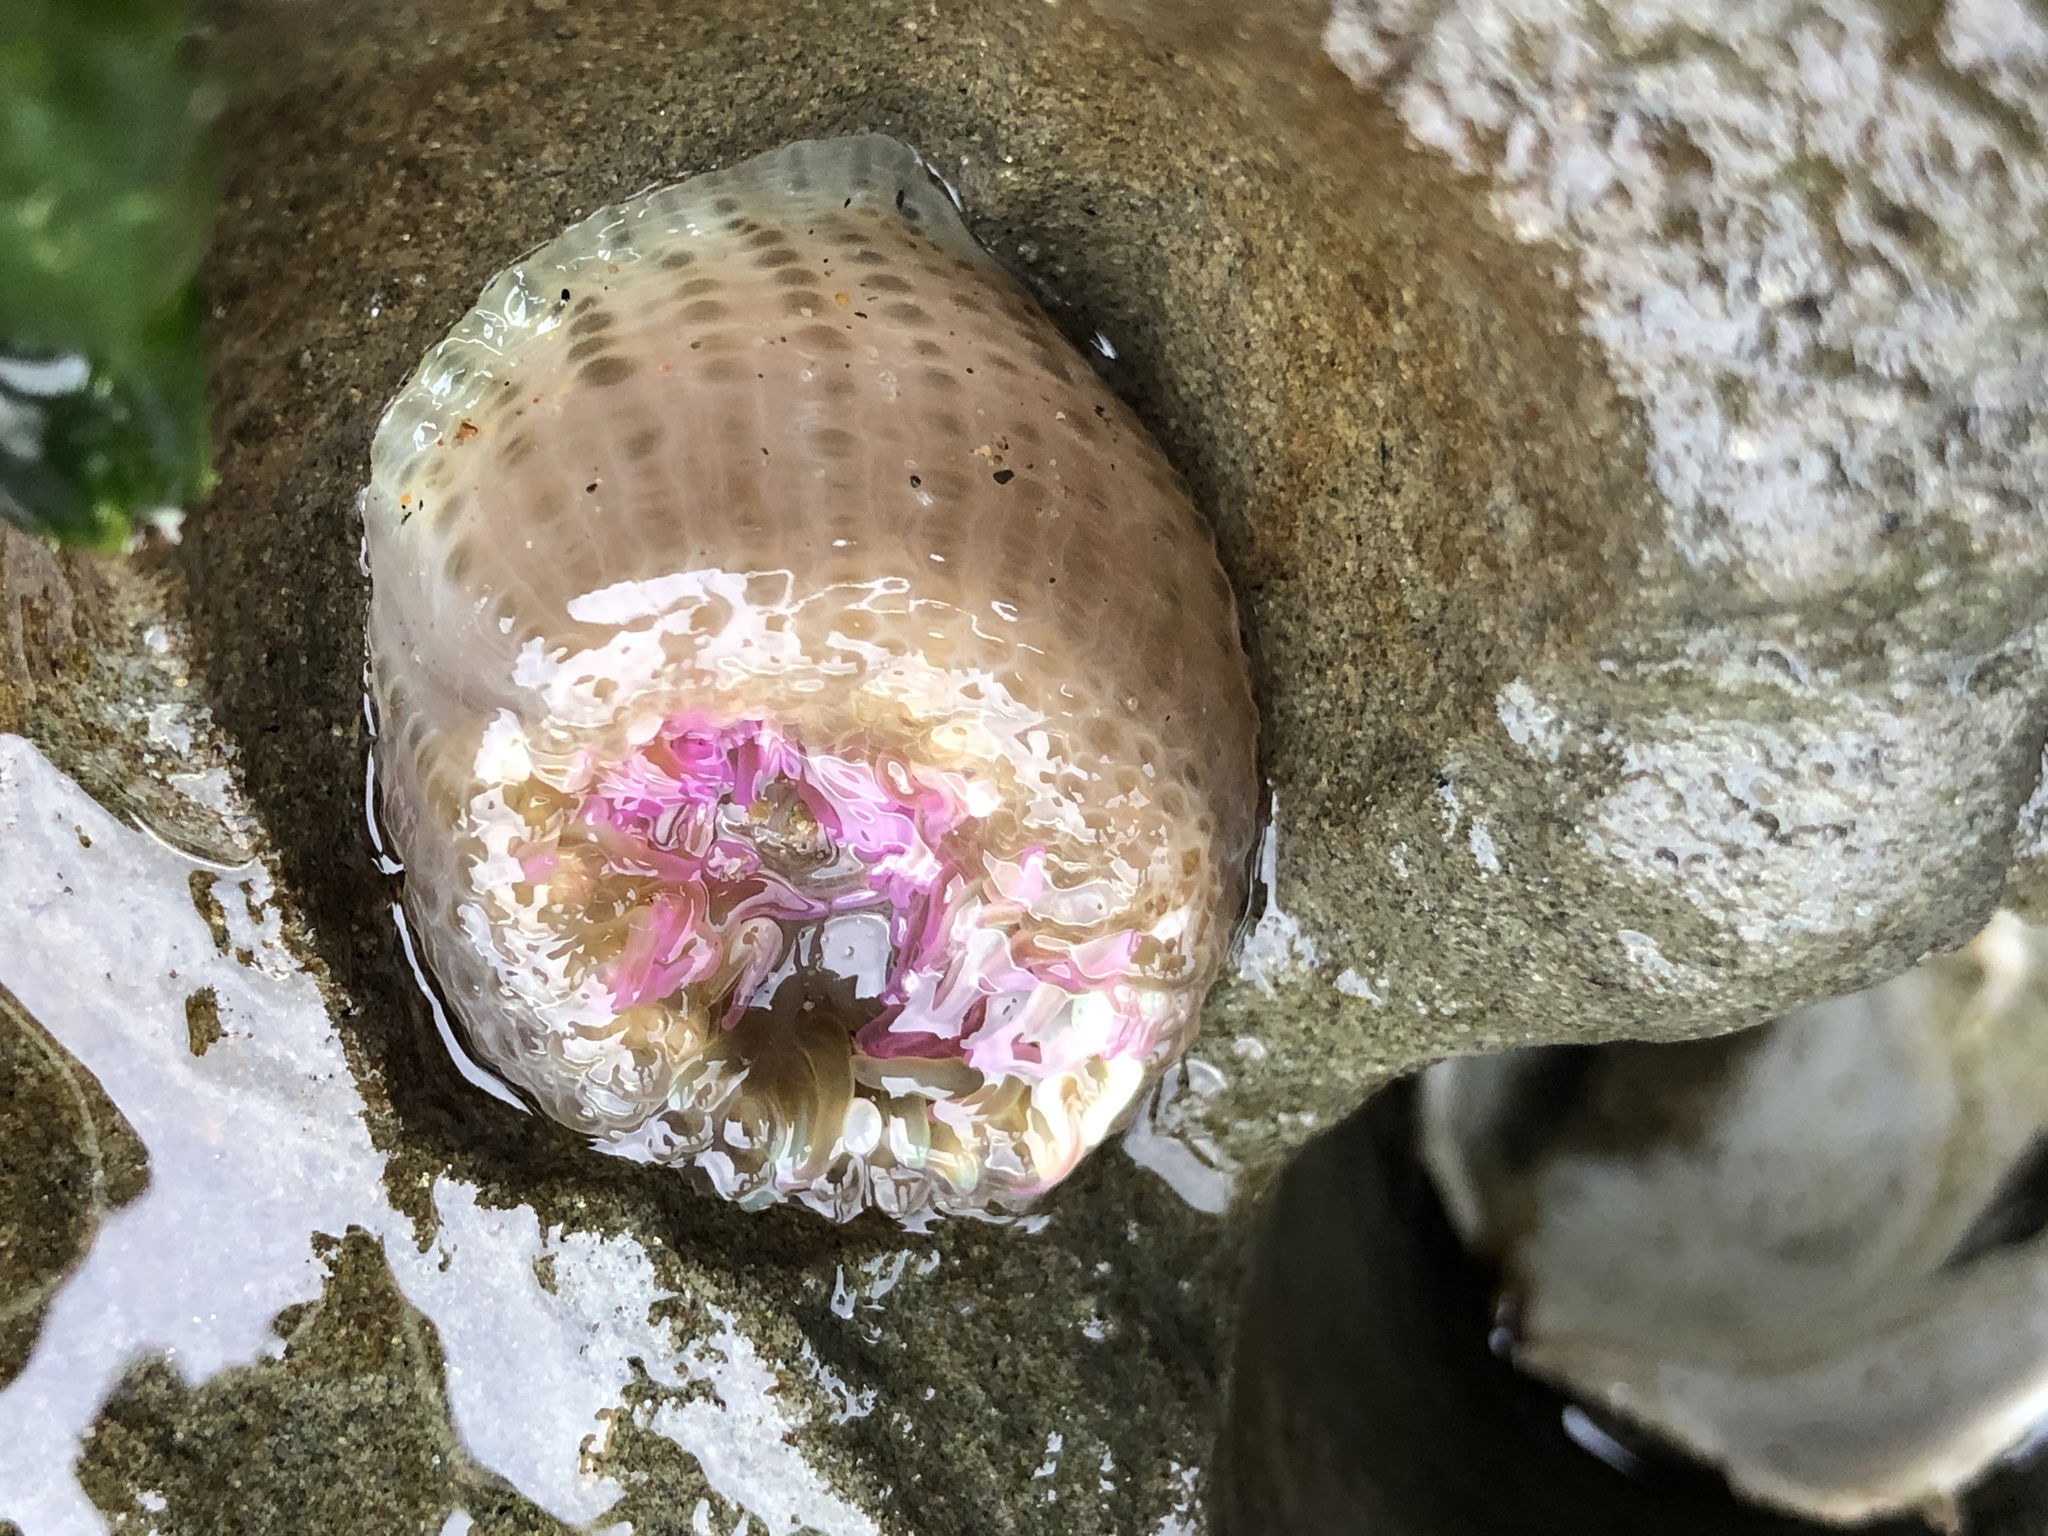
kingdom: Animalia
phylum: Cnidaria
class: Anthozoa
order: Actiniaria
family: Actiniidae
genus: Anthopleura
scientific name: Anthopleura elegantissima
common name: Clonal anemone
